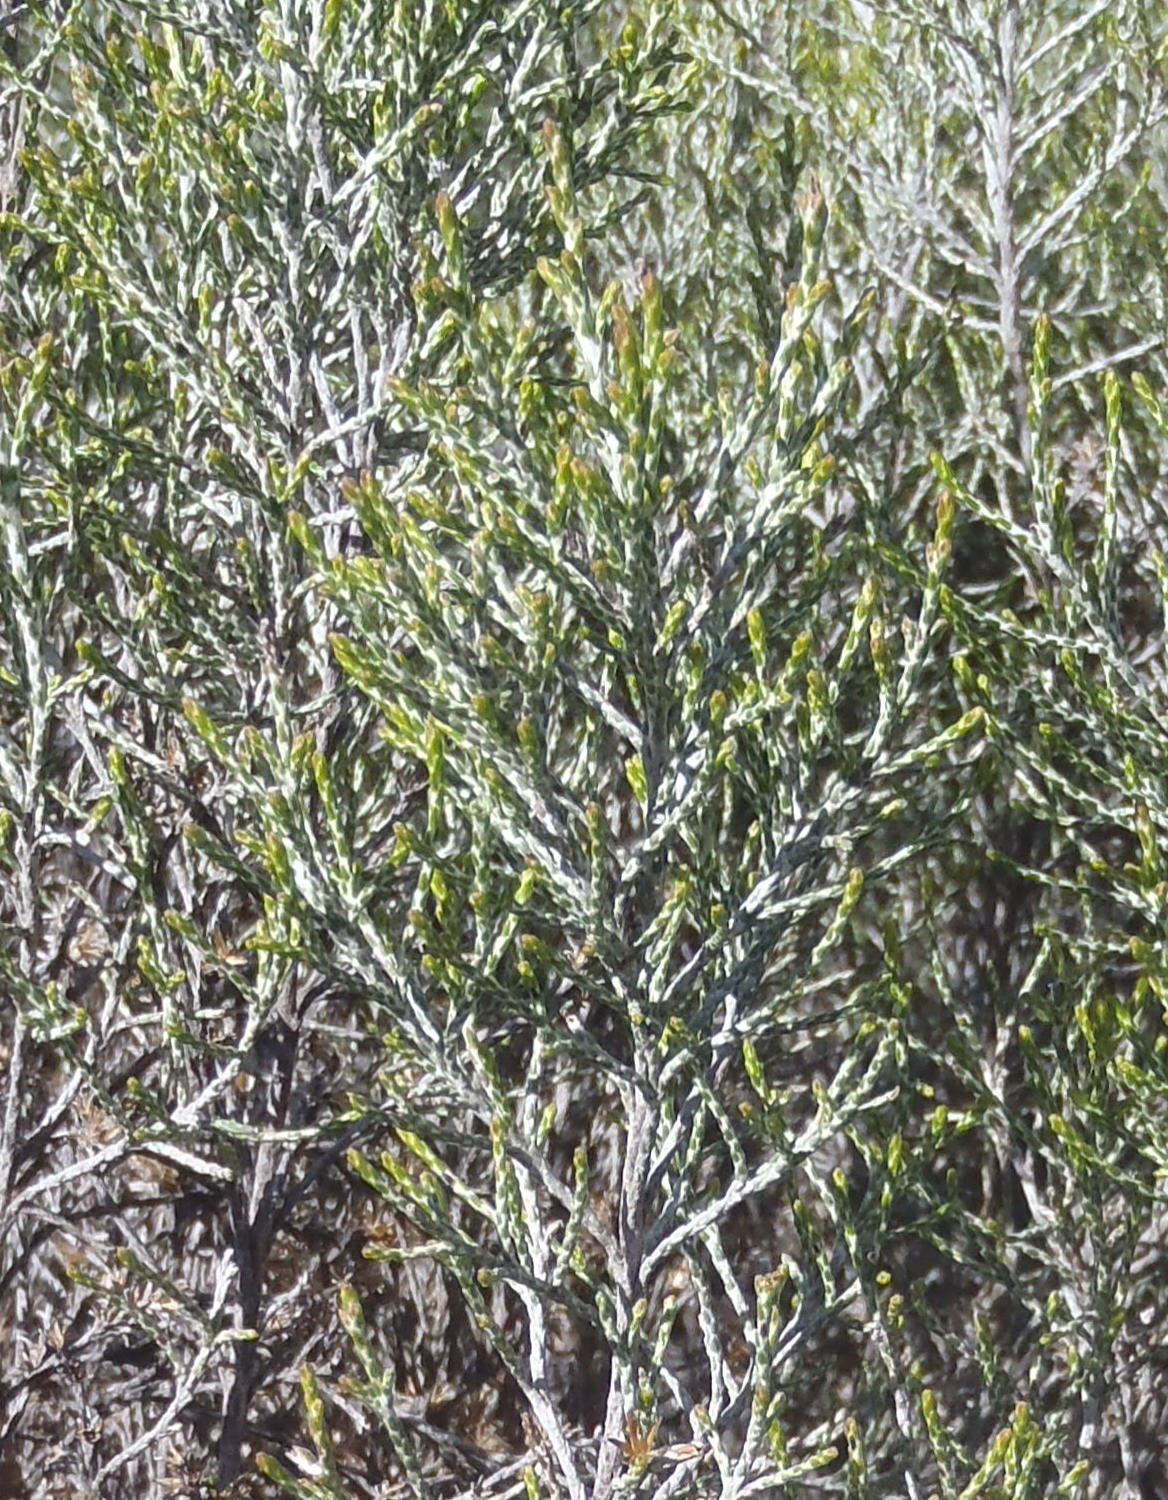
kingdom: Plantae
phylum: Tracheophyta
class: Magnoliopsida
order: Asterales
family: Asteraceae
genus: Dicerothamnus
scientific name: Dicerothamnus rhinocerotis
